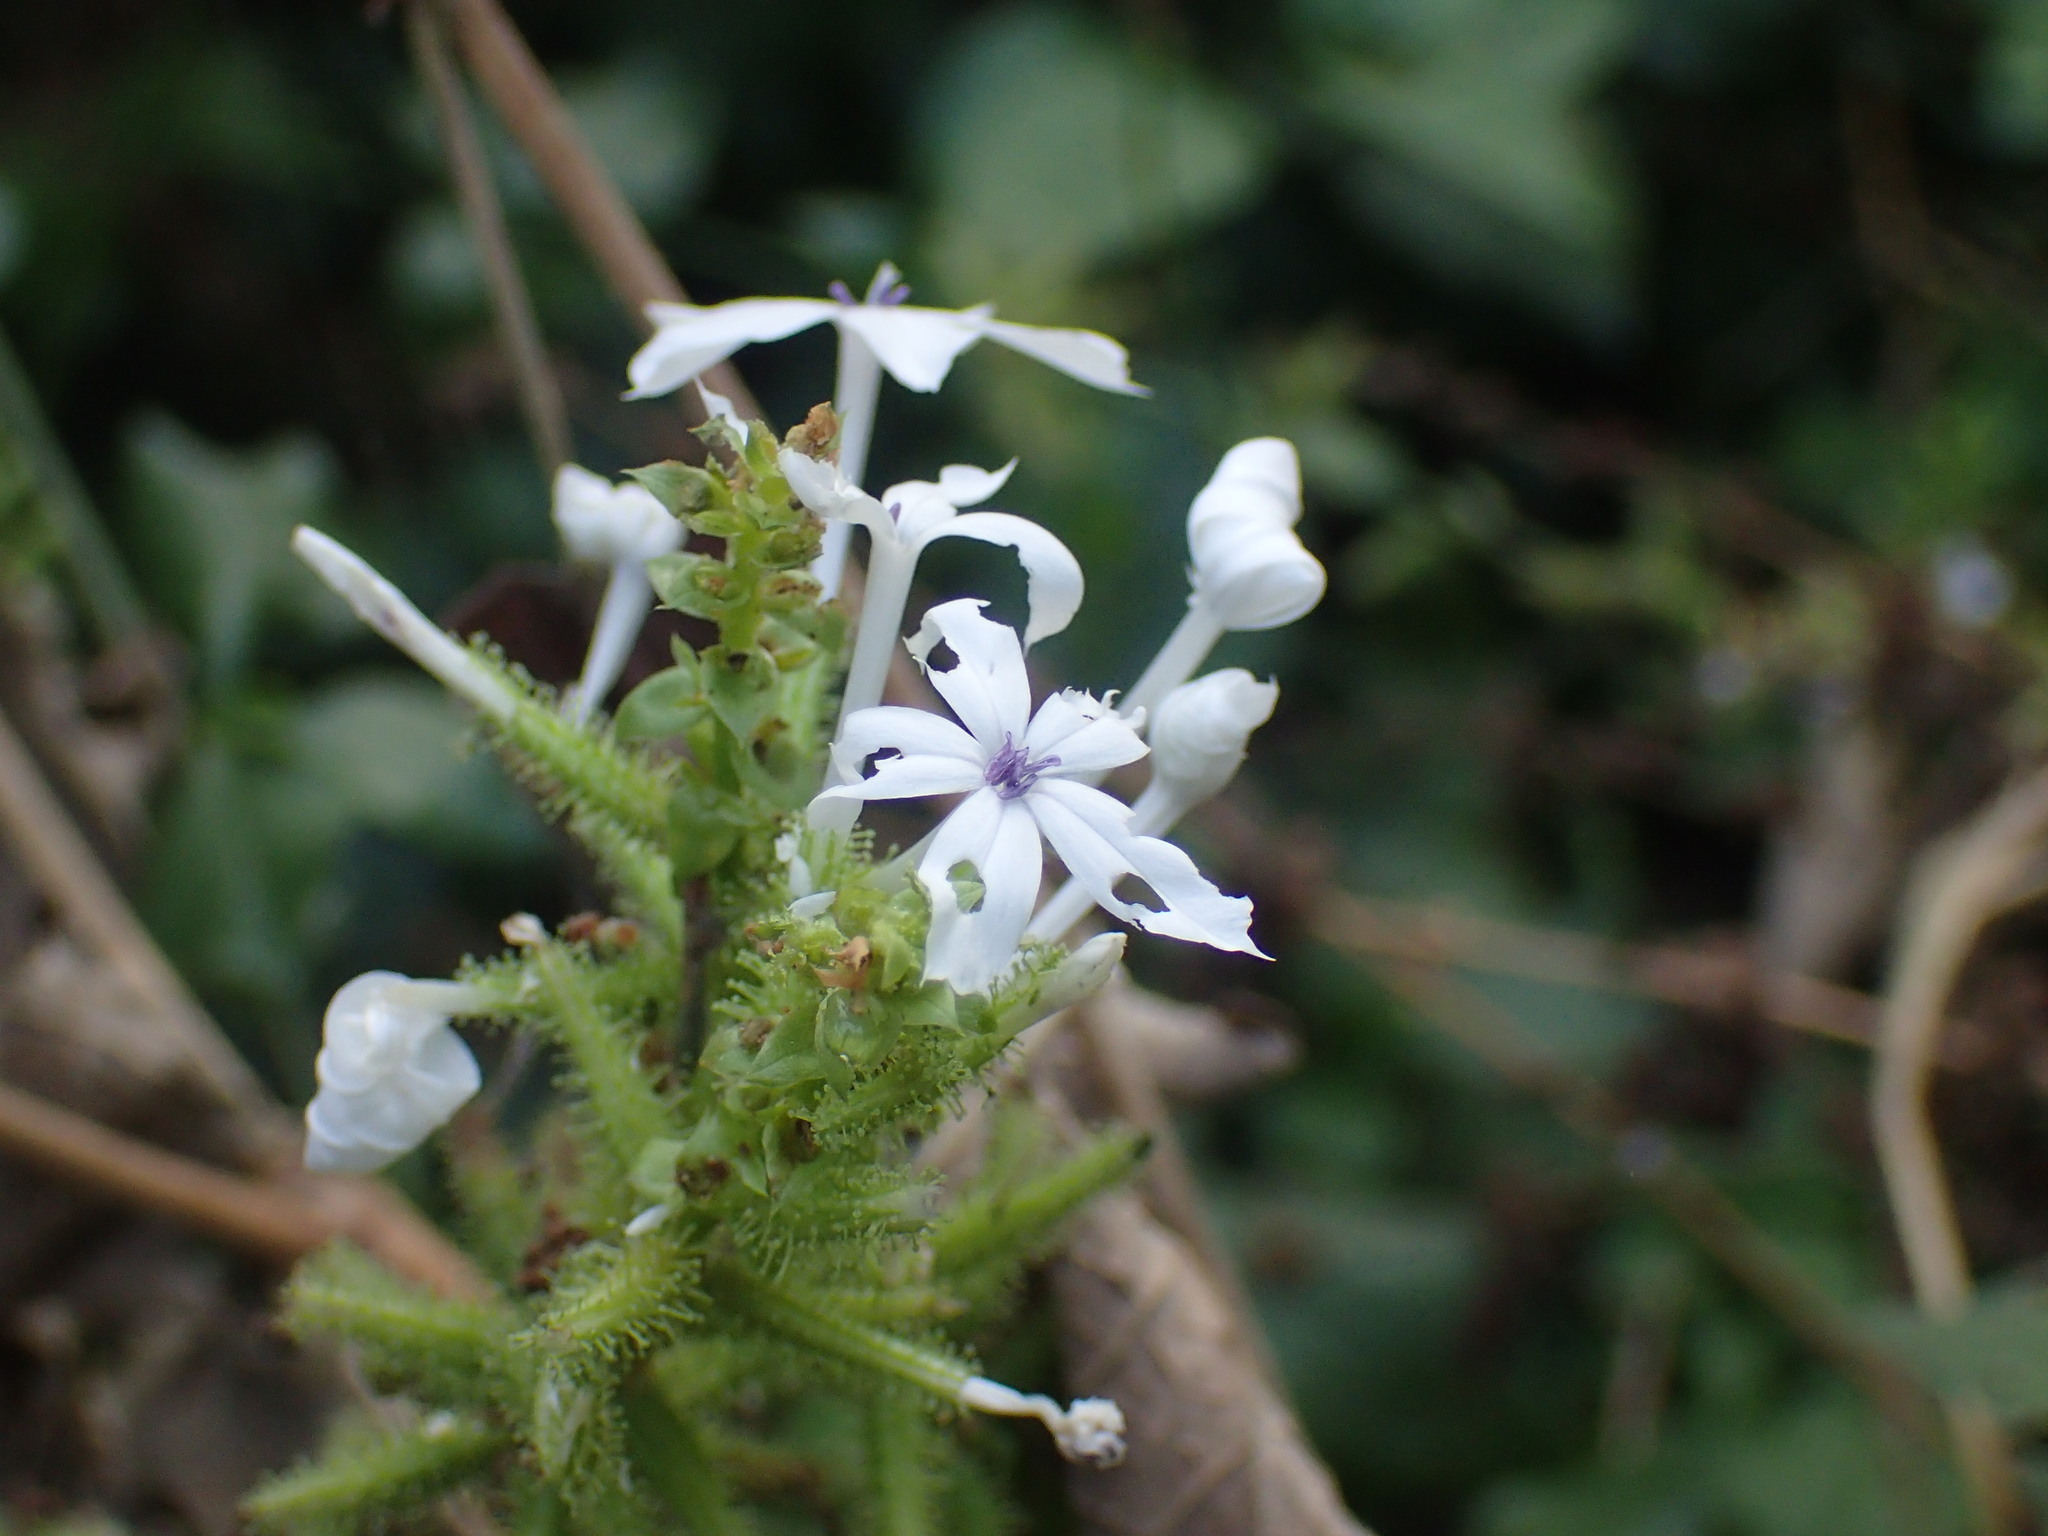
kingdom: Plantae
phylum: Tracheophyta
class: Magnoliopsida
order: Caryophyllales
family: Plumbaginaceae
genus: Plumbago
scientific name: Plumbago zeylanica
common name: Doctorbush
